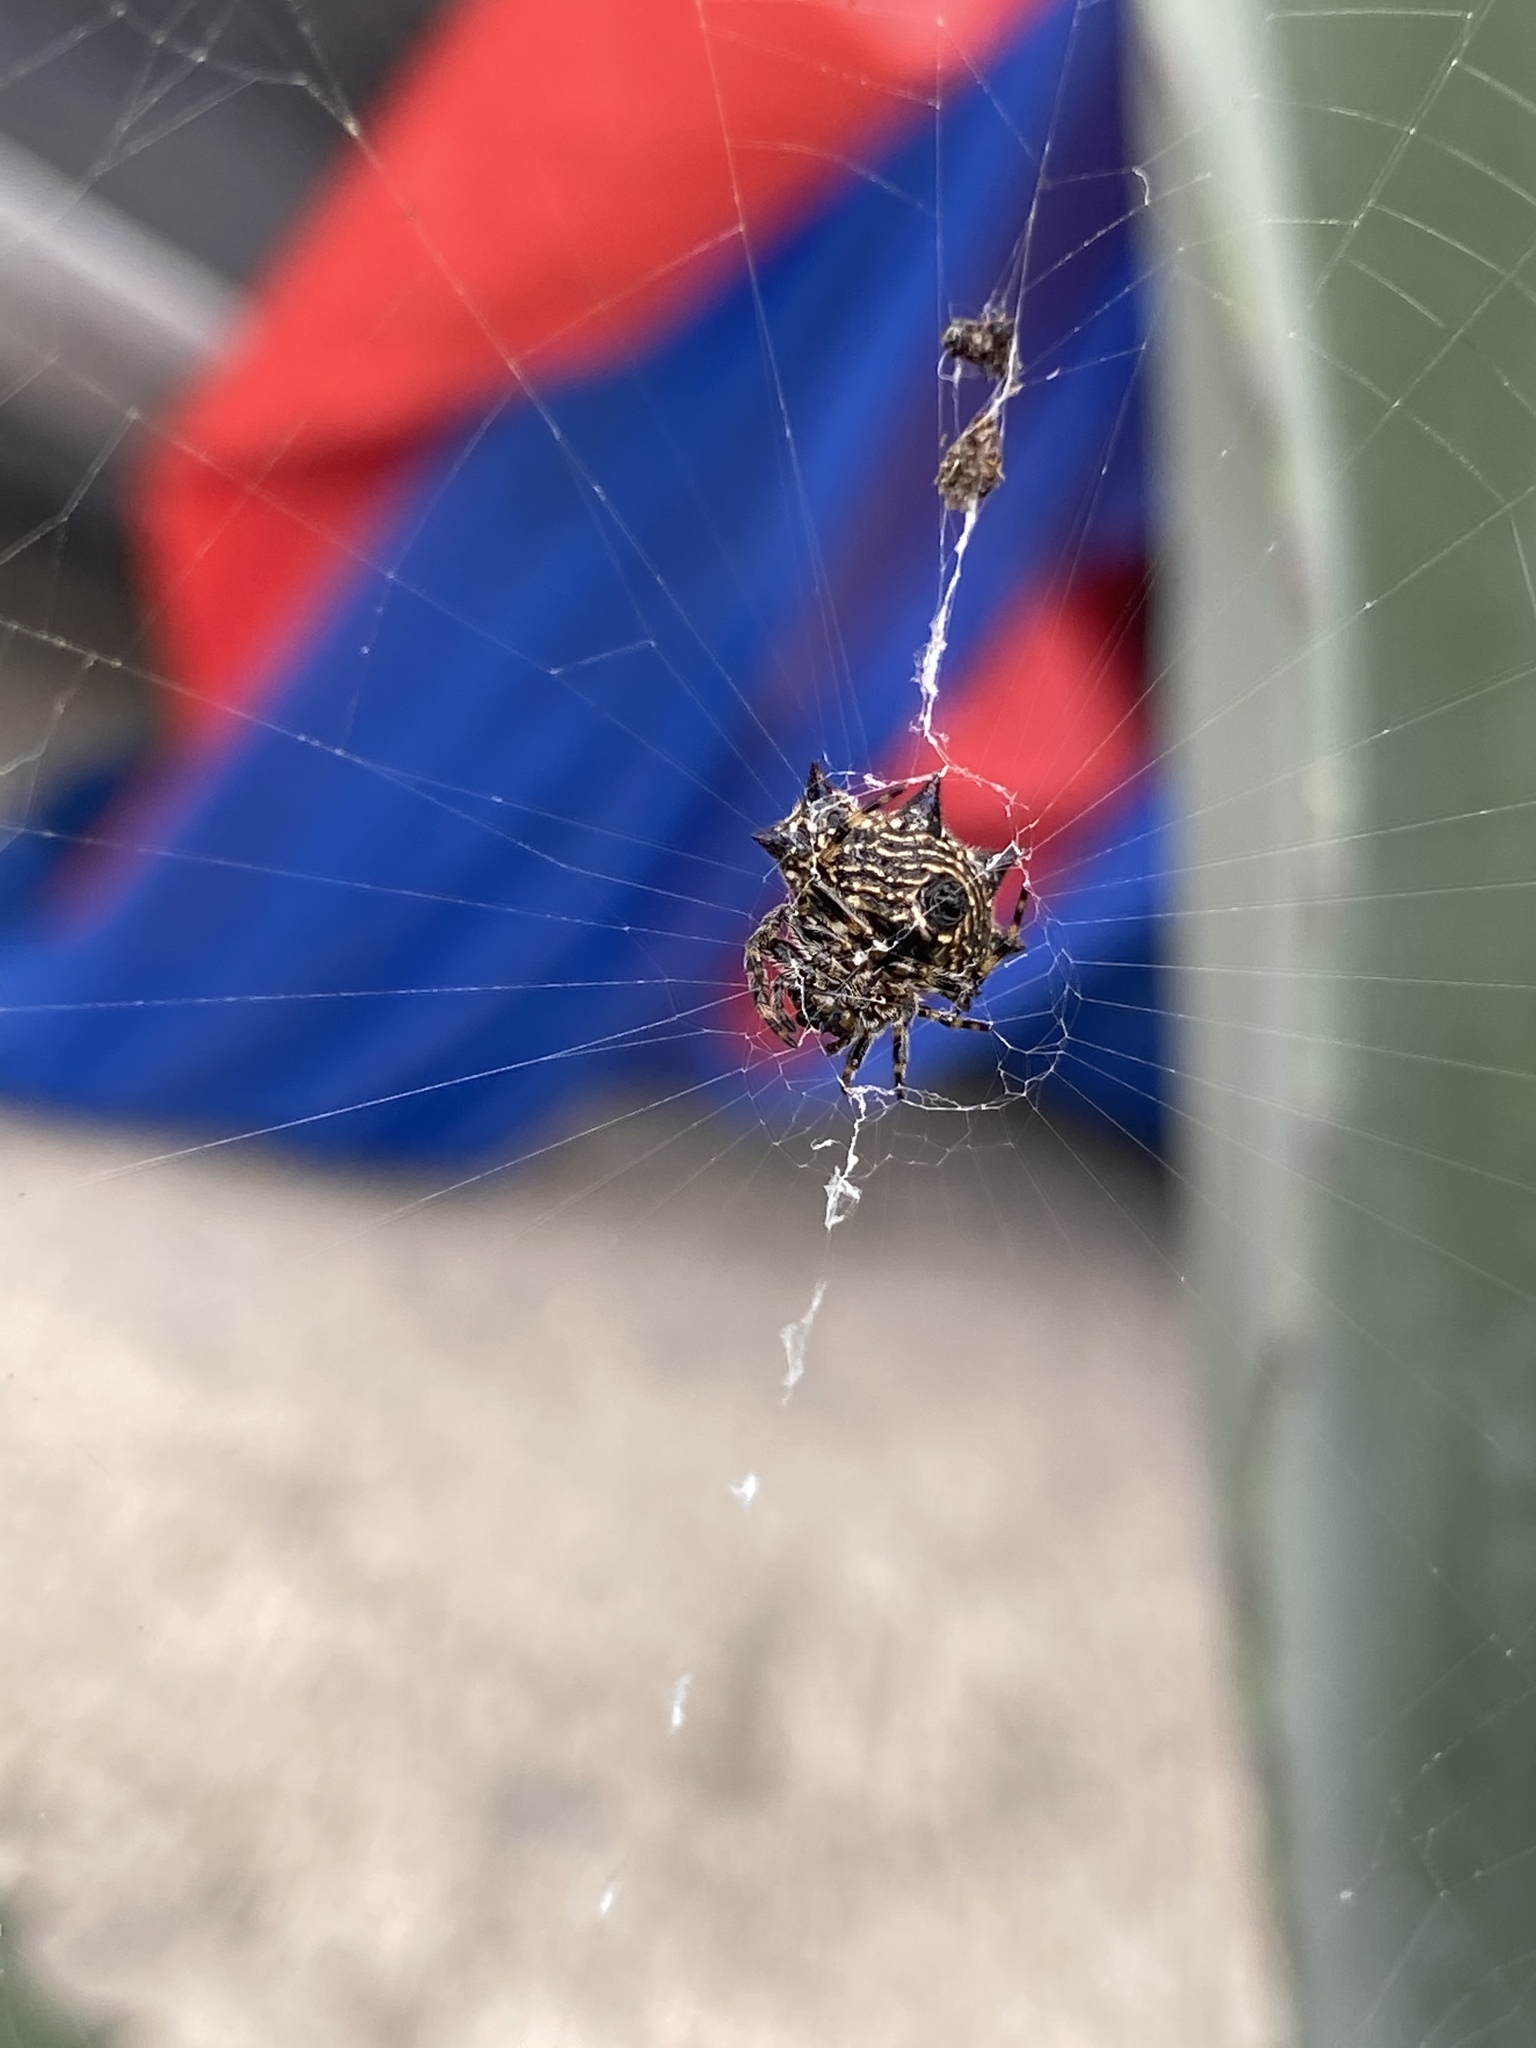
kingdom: Animalia
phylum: Arthropoda
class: Arachnida
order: Araneae
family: Araneidae
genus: Gasteracantha
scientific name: Gasteracantha cancriformis
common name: Orb weavers
